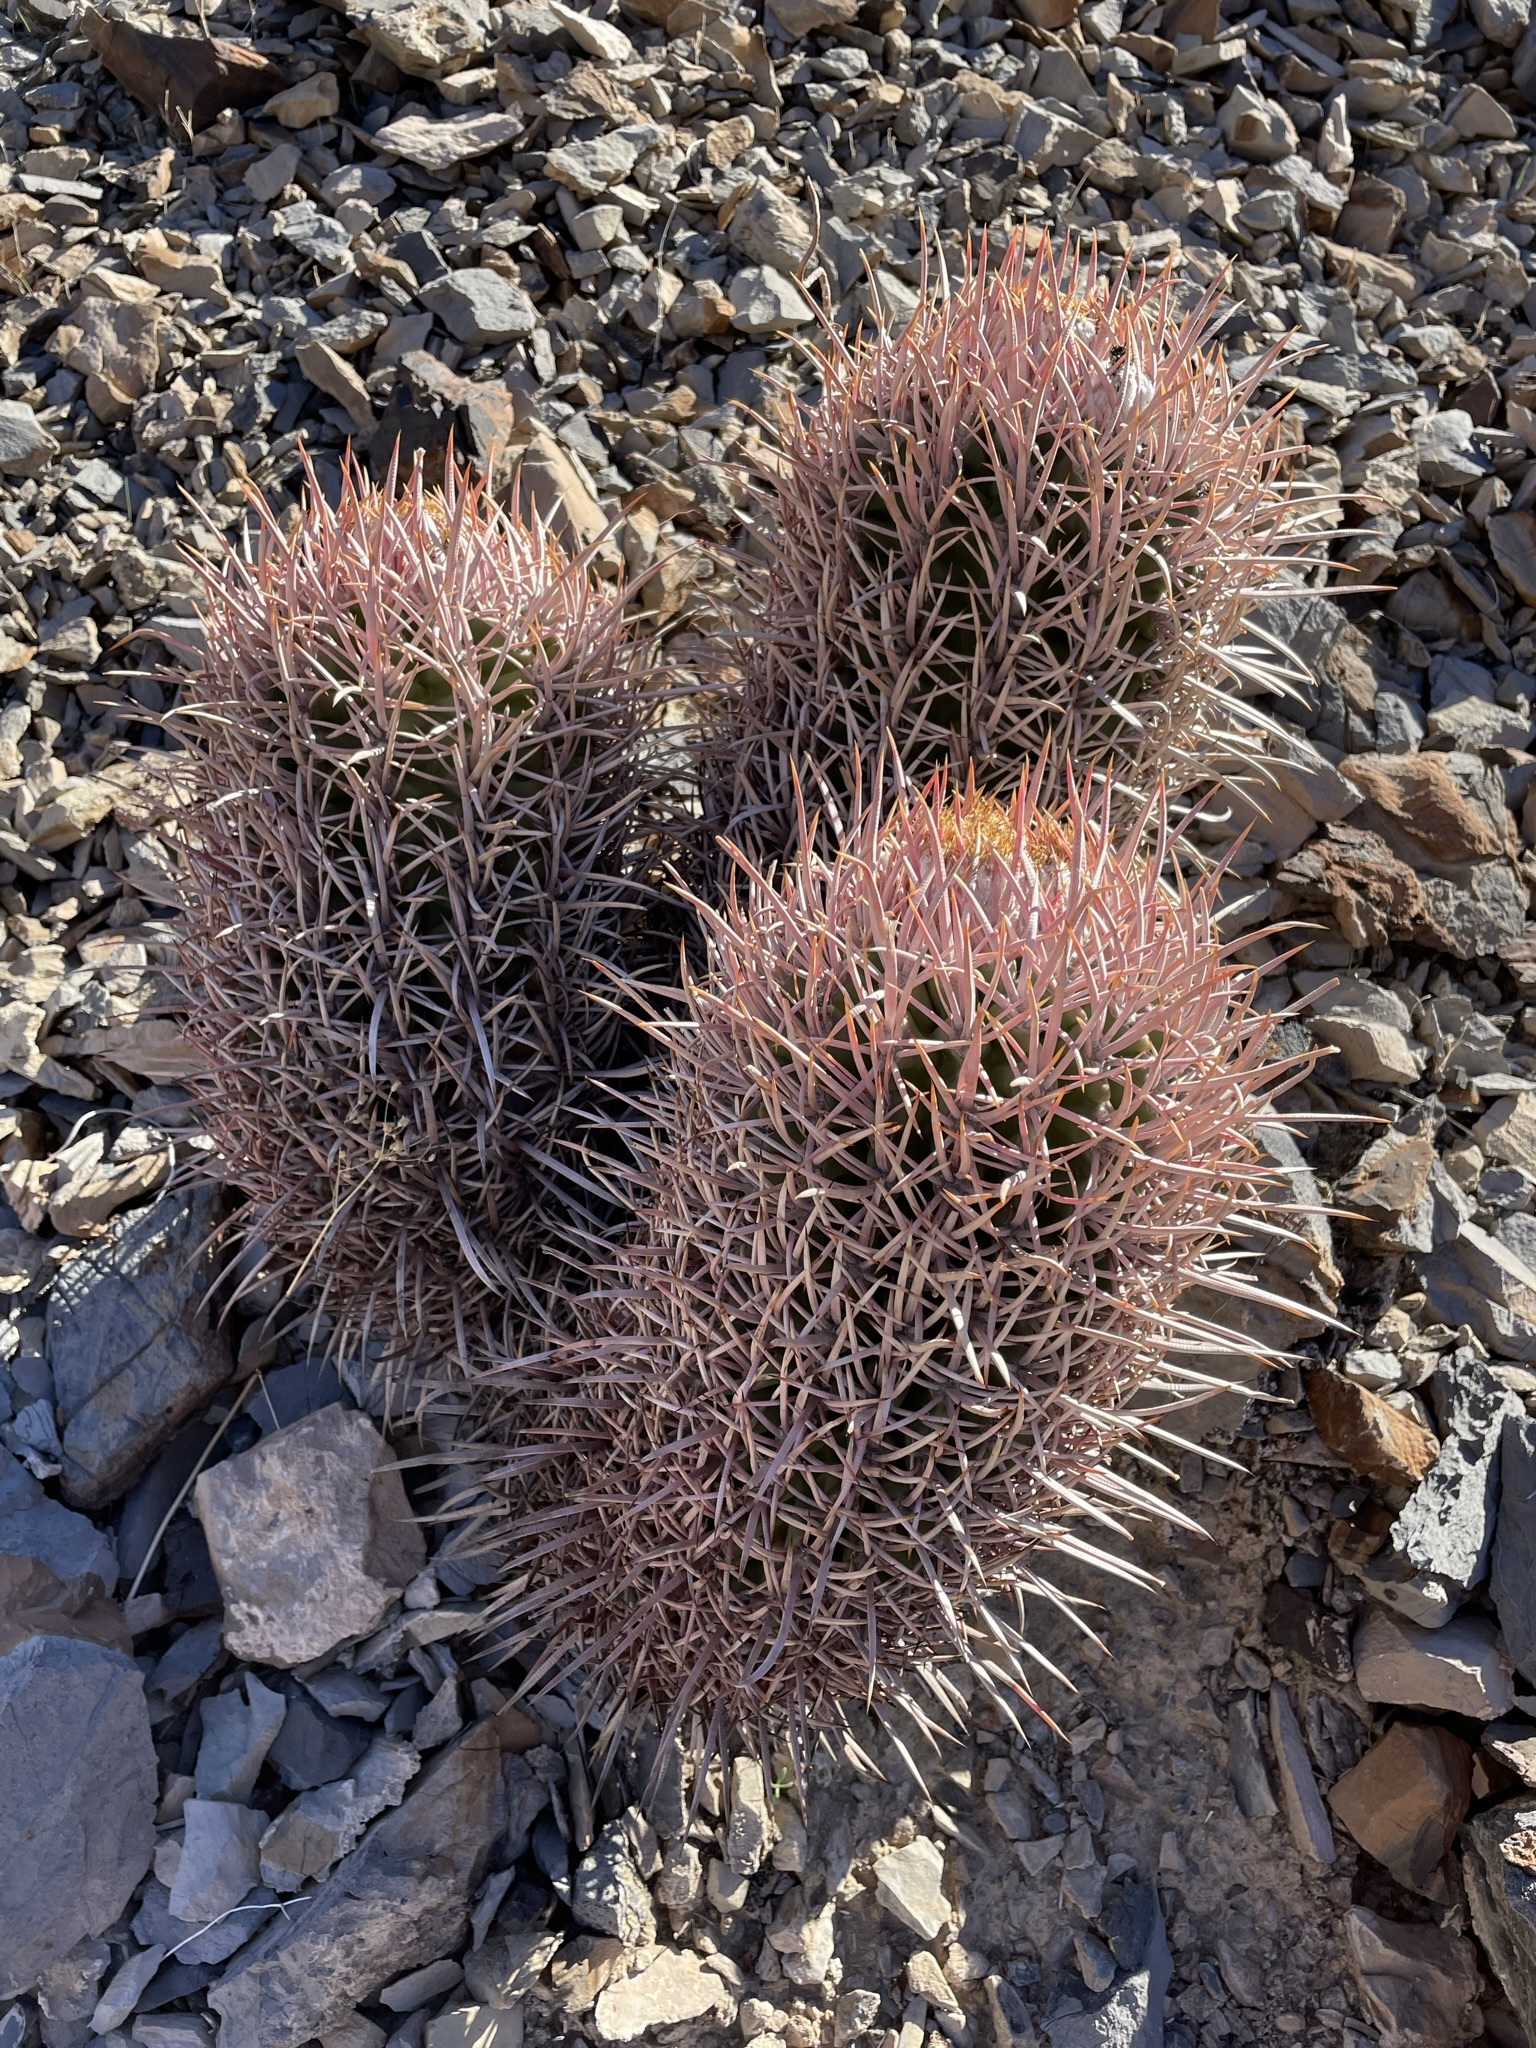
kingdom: Plantae
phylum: Tracheophyta
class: Magnoliopsida
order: Caryophyllales
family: Cactaceae
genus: Echinocactus
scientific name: Echinocactus polycephalus
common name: Cottontop cactus
